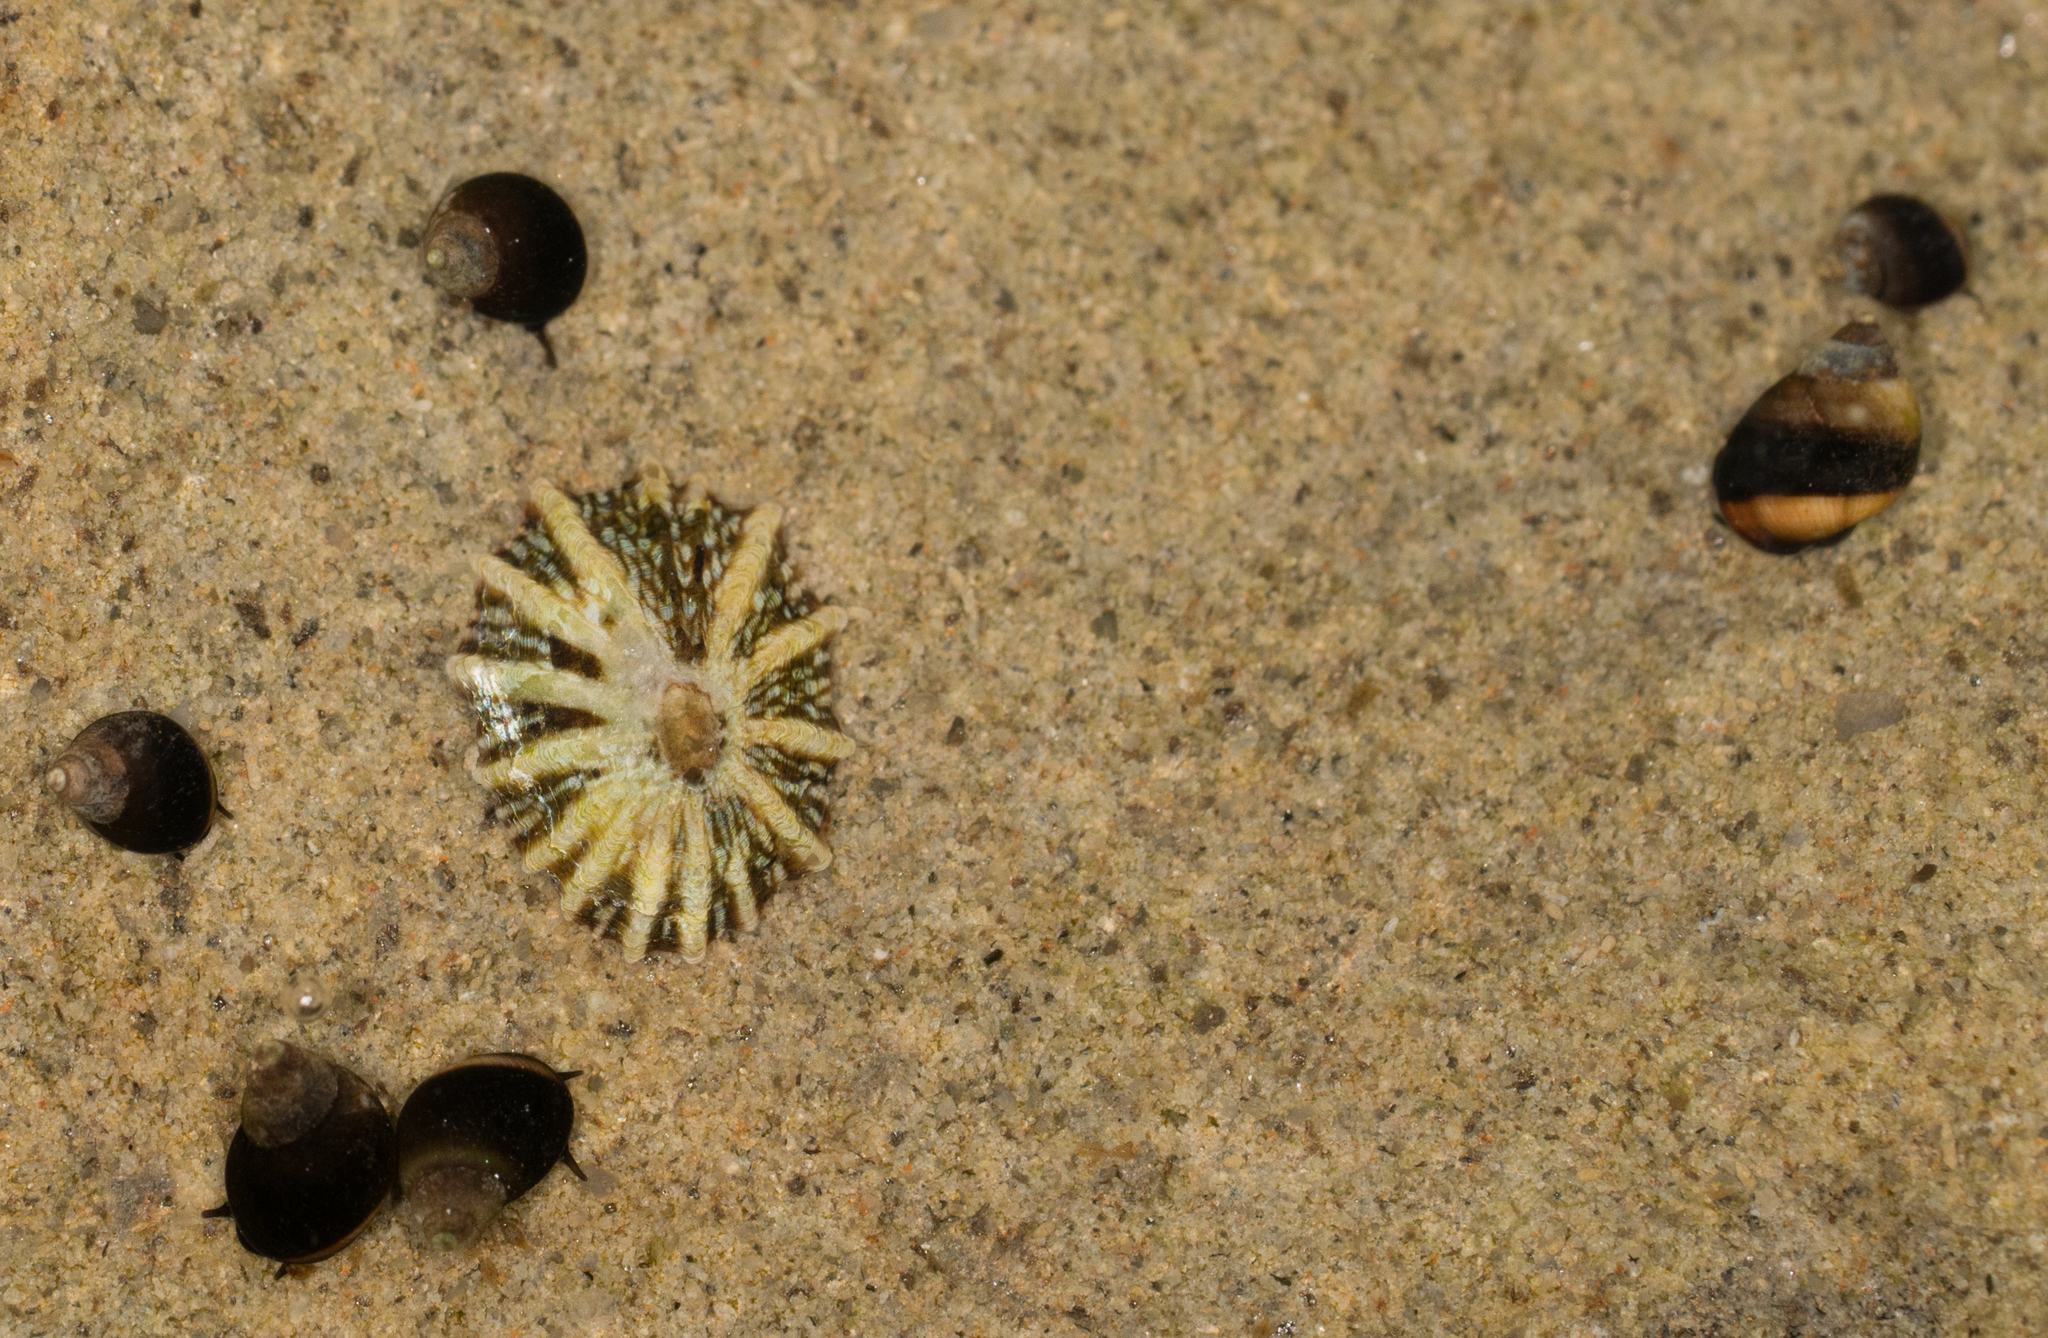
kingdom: Animalia
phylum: Mollusca
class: Gastropoda
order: Littorinimorpha
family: Littorinidae
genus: Littorina
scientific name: Littorina keenae
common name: Eroded periwinkle
